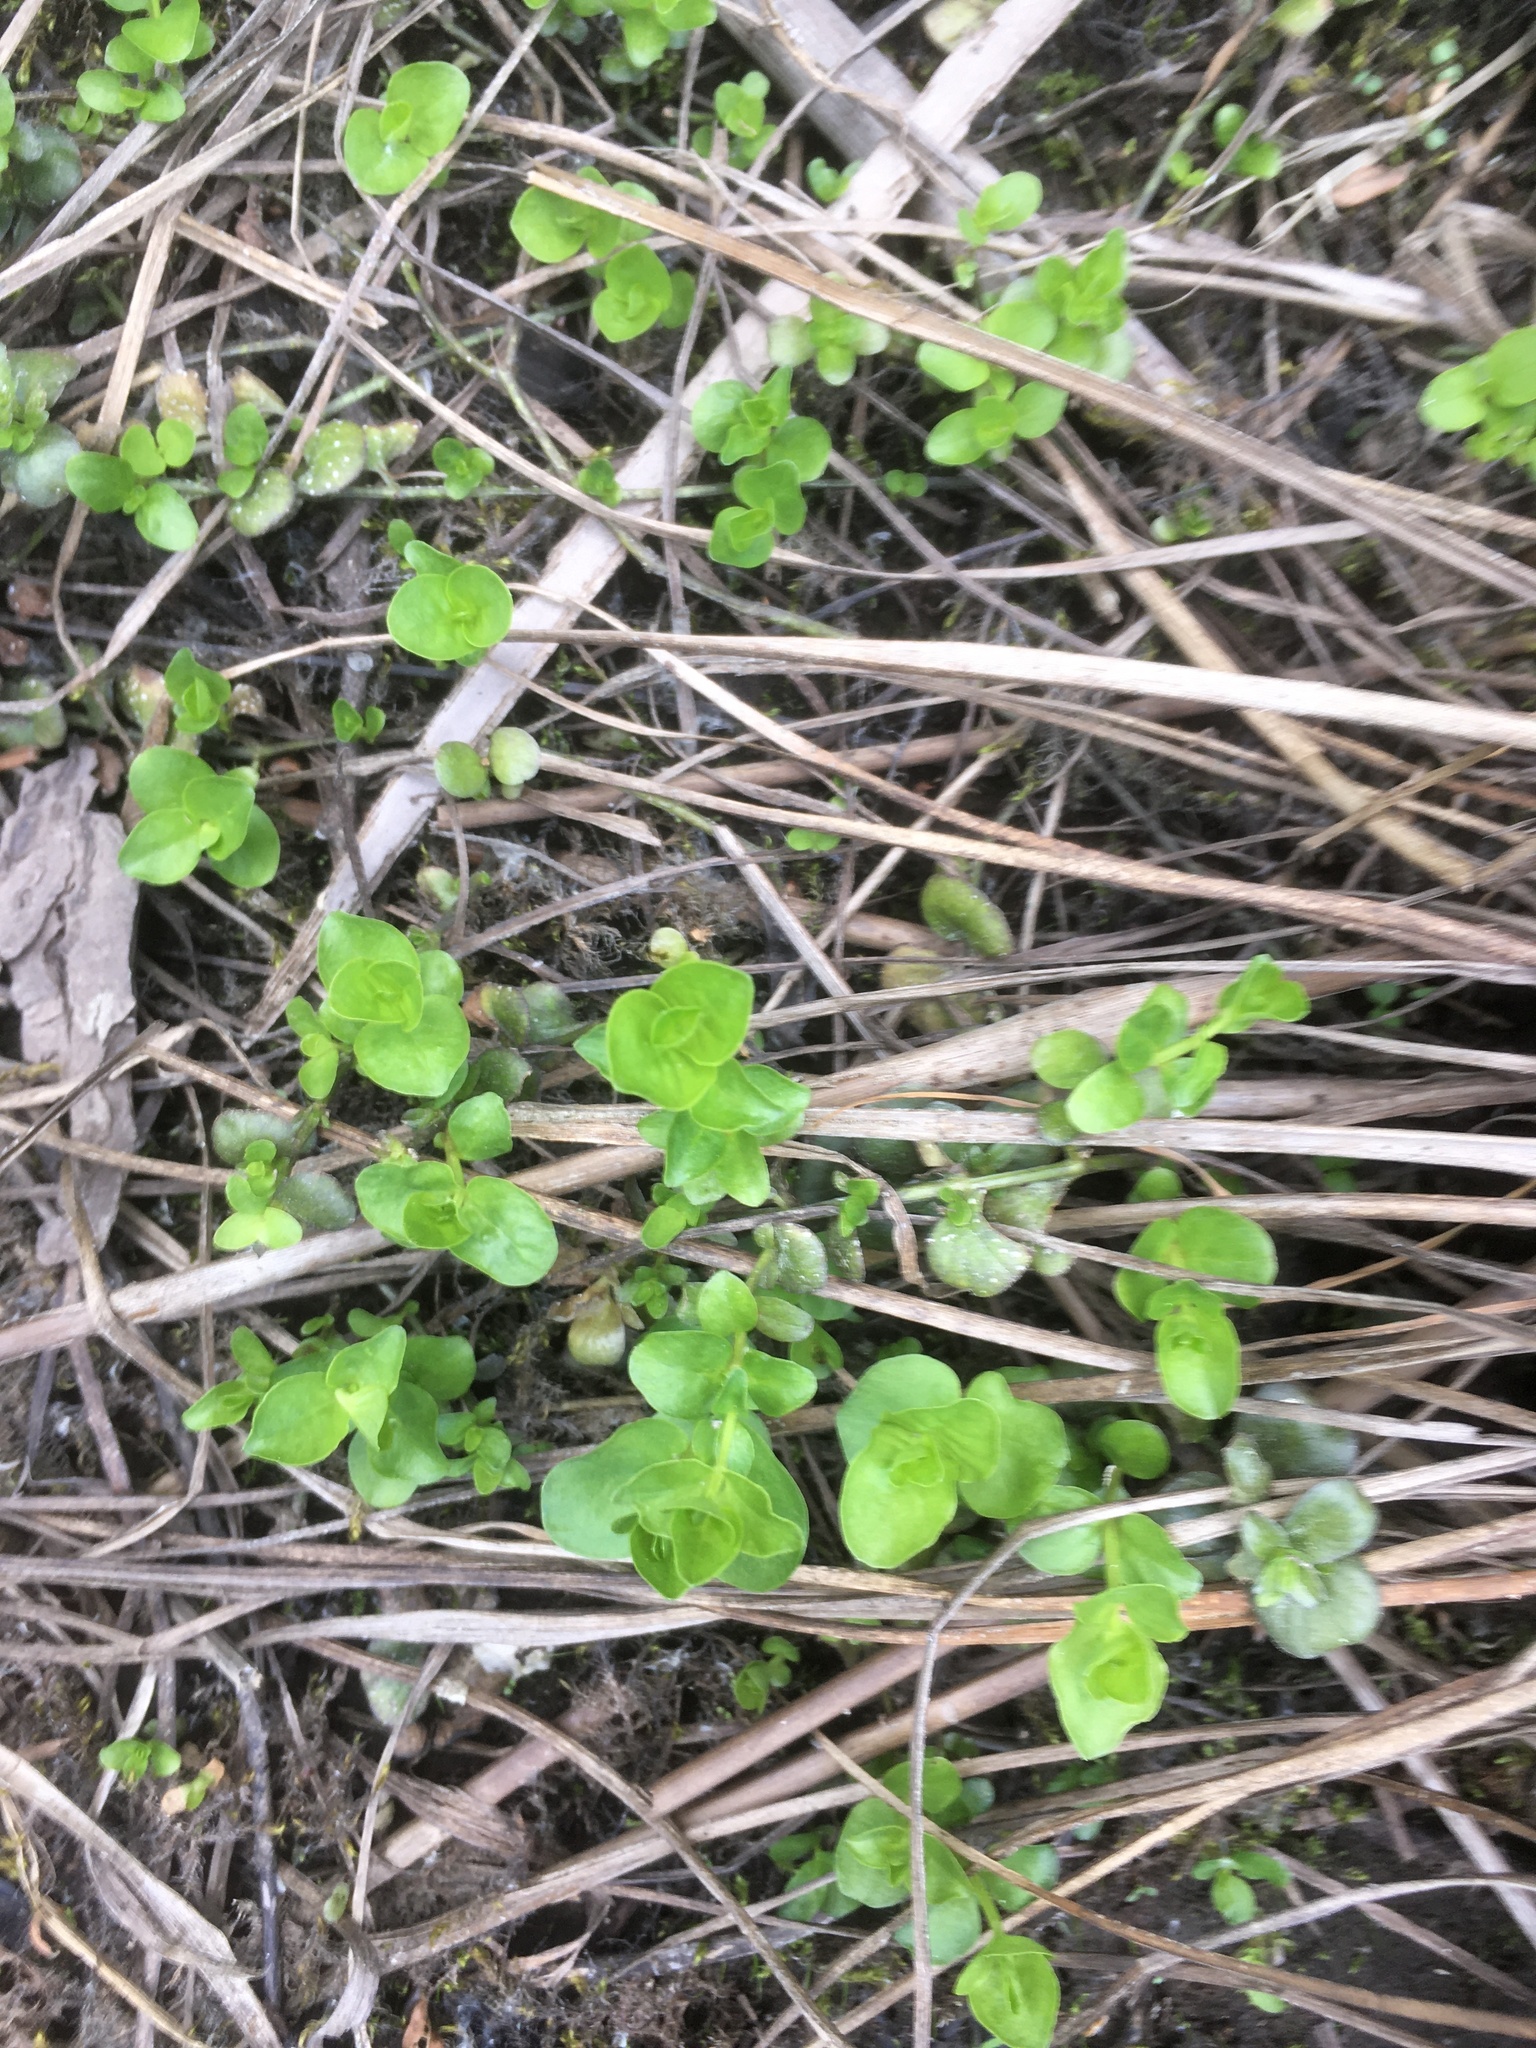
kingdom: Plantae
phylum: Tracheophyta
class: Magnoliopsida
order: Ericales
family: Primulaceae
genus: Lysimachia
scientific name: Lysimachia nummularia
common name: Moneywort
